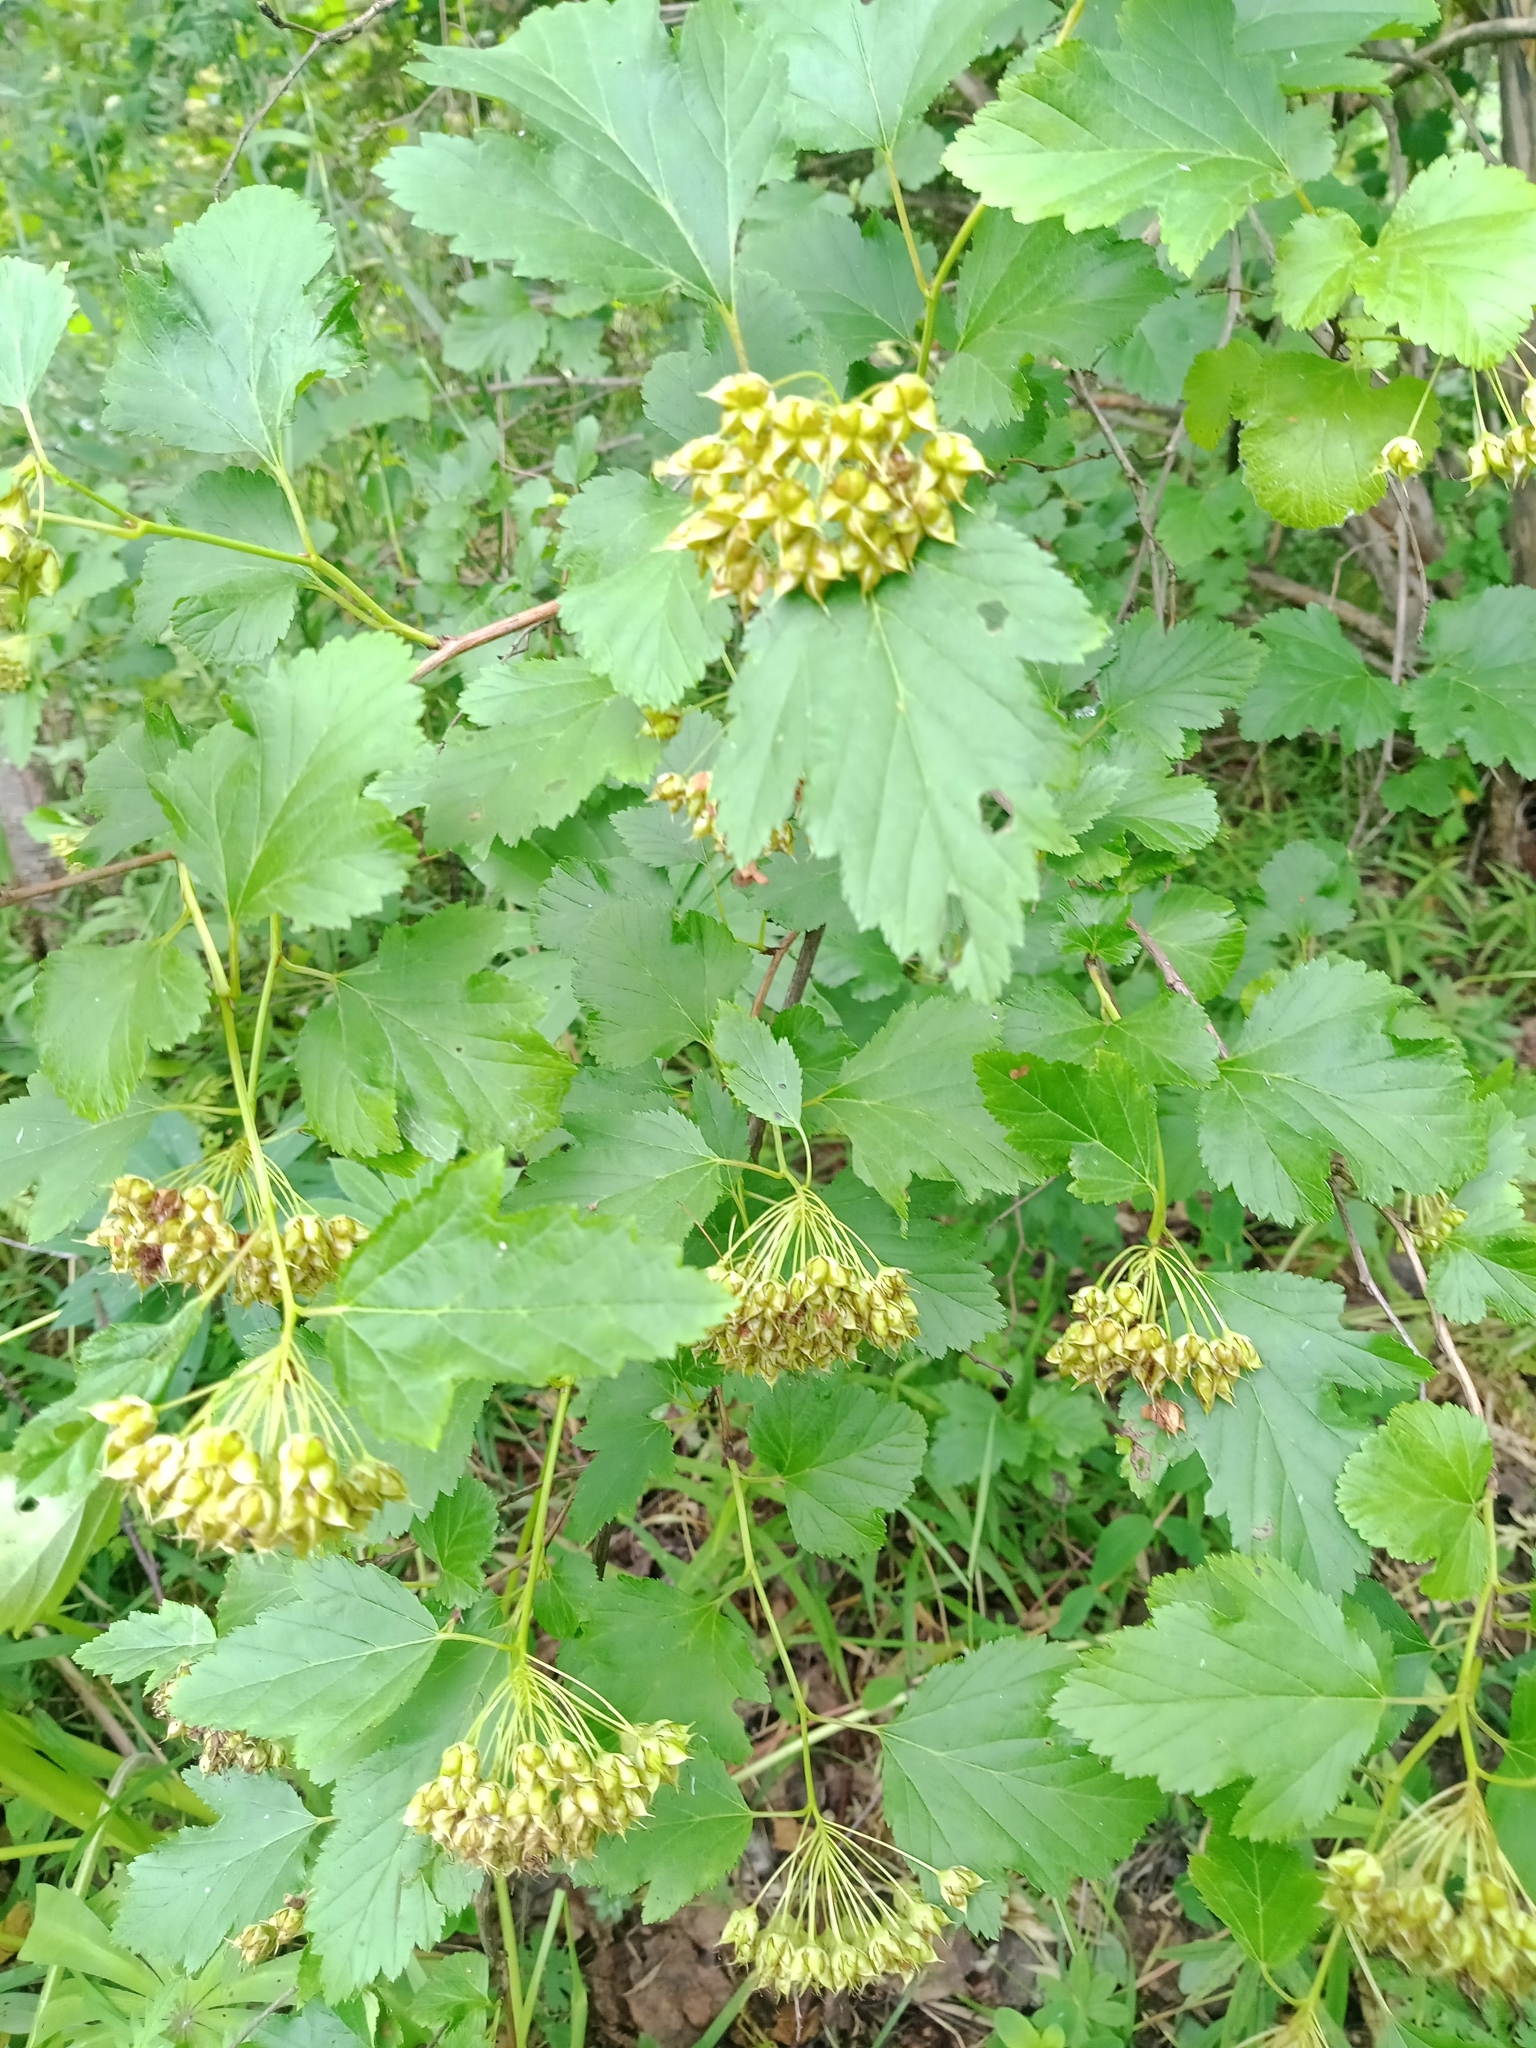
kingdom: Plantae
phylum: Tracheophyta
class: Magnoliopsida
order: Rosales
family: Rosaceae
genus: Physocarpus
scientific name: Physocarpus opulifolius
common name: Ninebark
